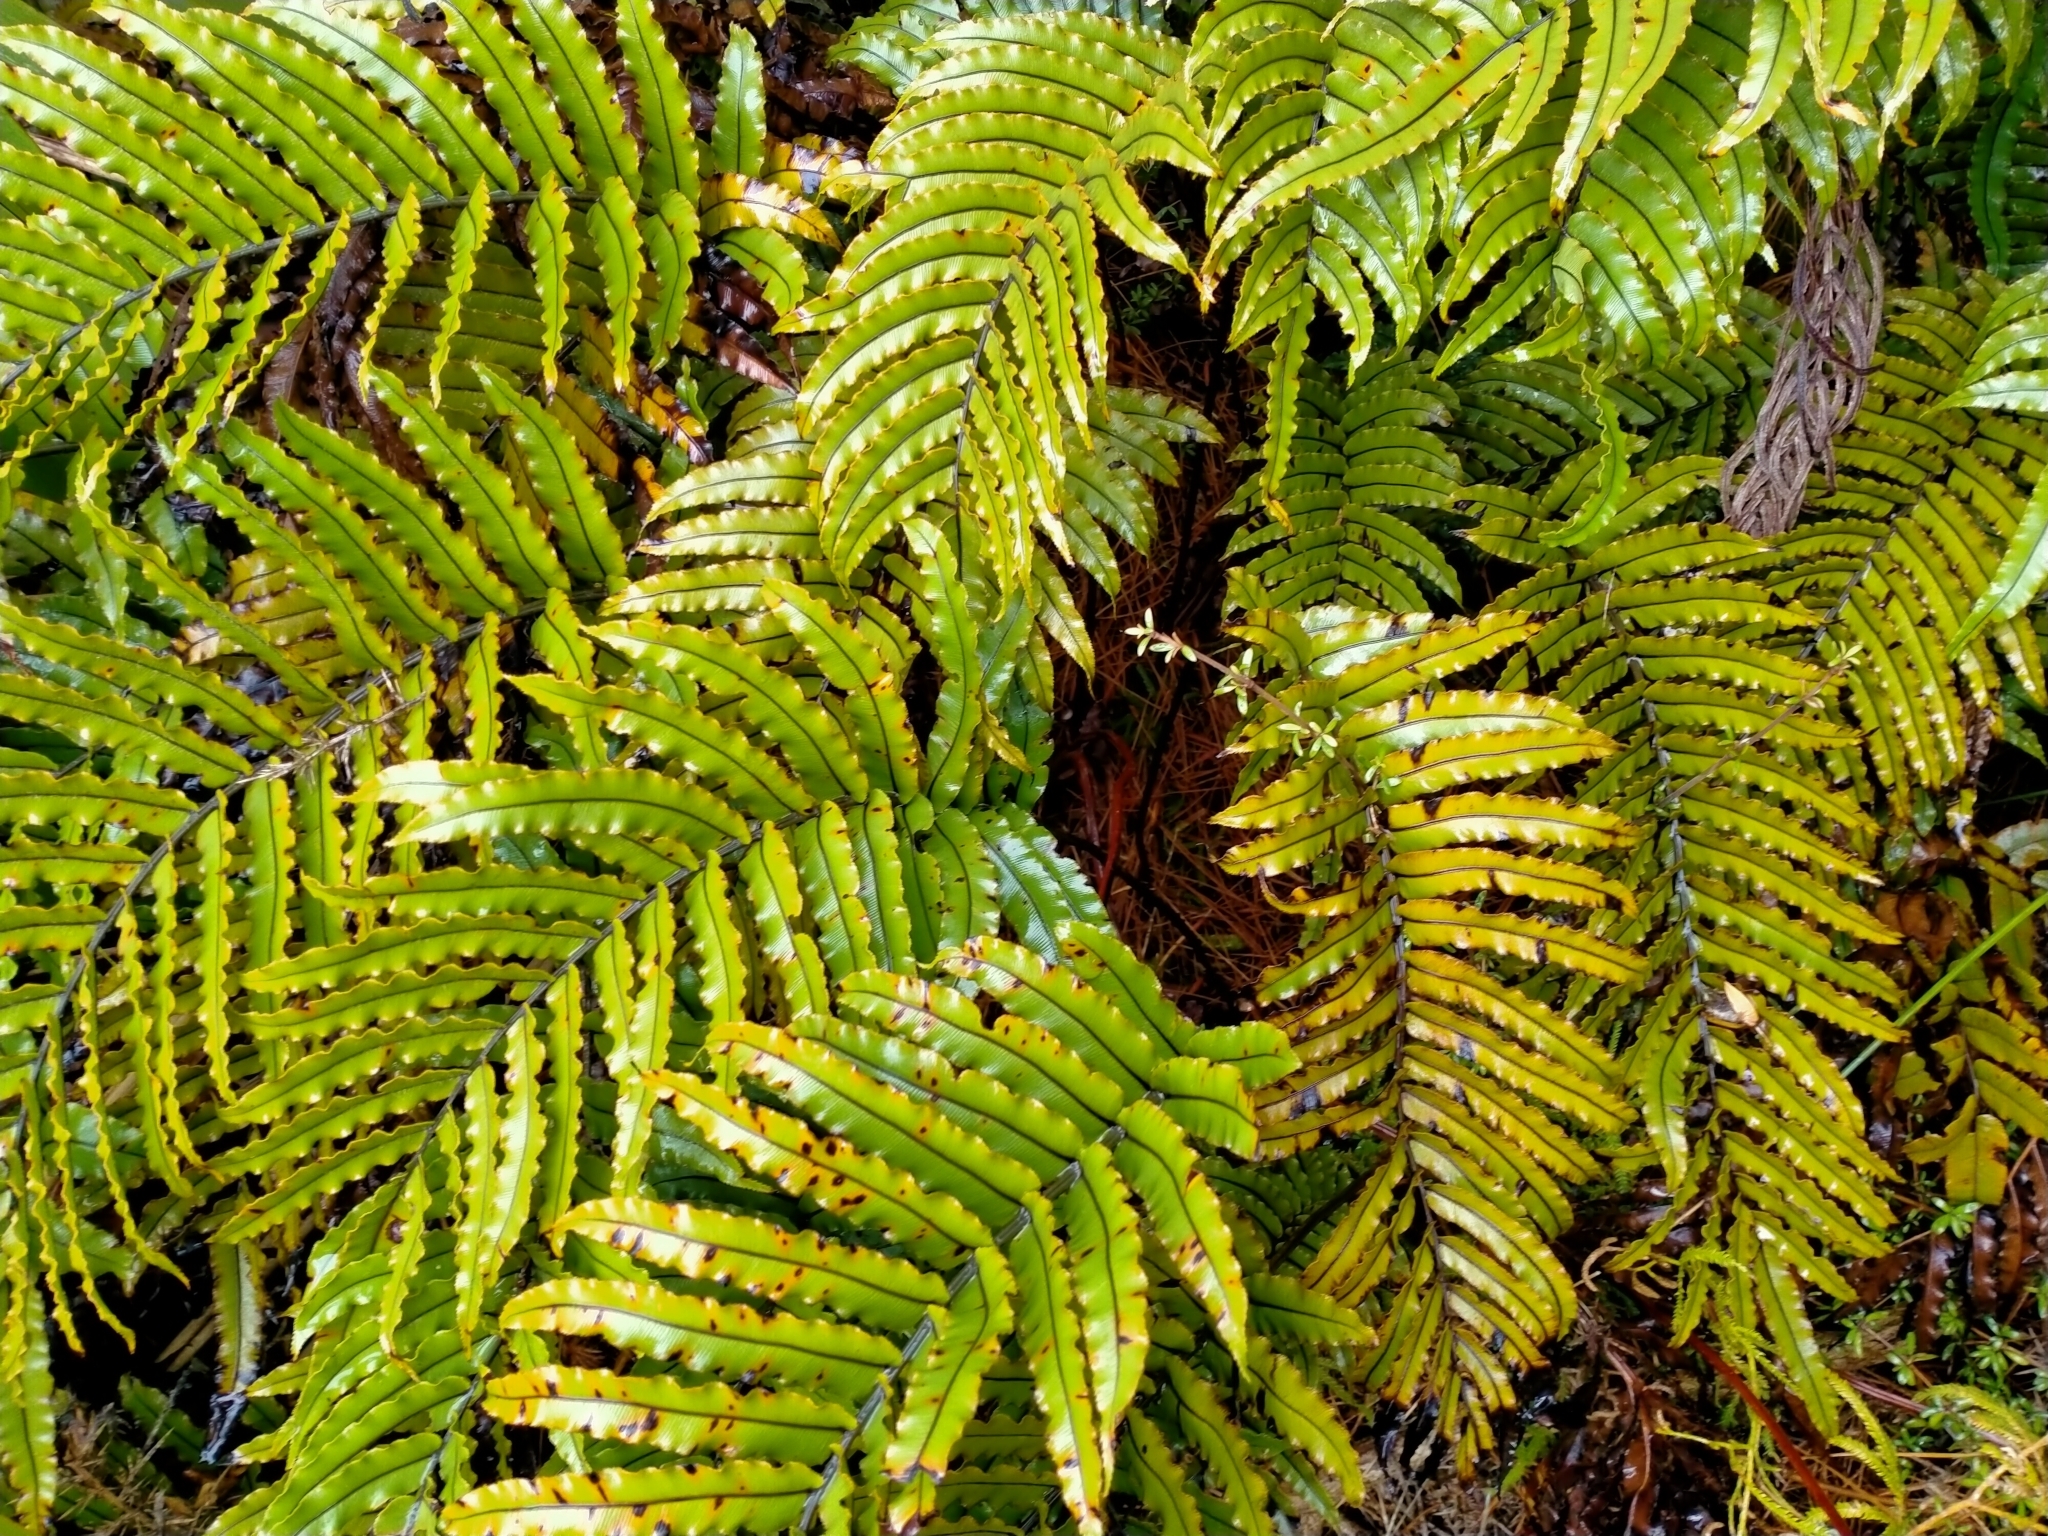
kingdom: Plantae
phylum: Tracheophyta
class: Polypodiopsida
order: Polypodiales
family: Blechnaceae
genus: Parablechnum
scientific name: Parablechnum montanum
